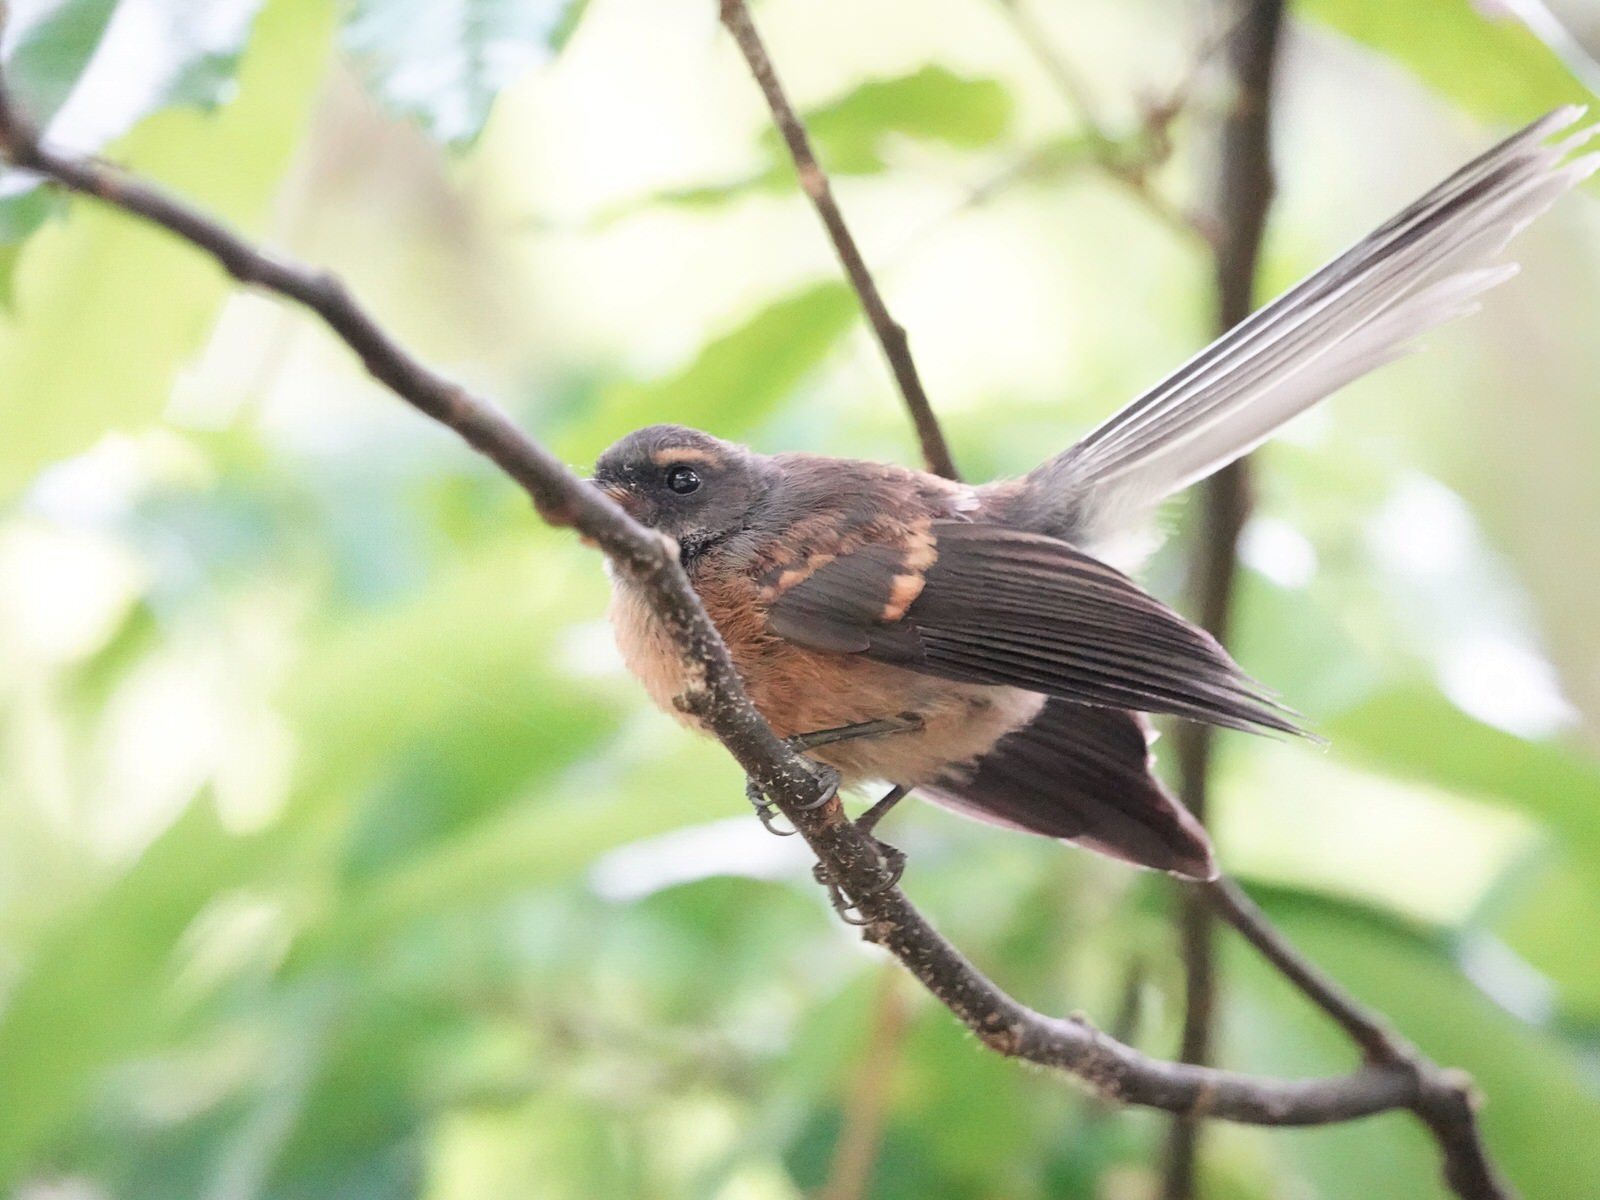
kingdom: Animalia
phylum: Chordata
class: Aves
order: Passeriformes
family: Rhipiduridae
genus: Rhipidura
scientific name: Rhipidura fuliginosa
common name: New zealand fantail
